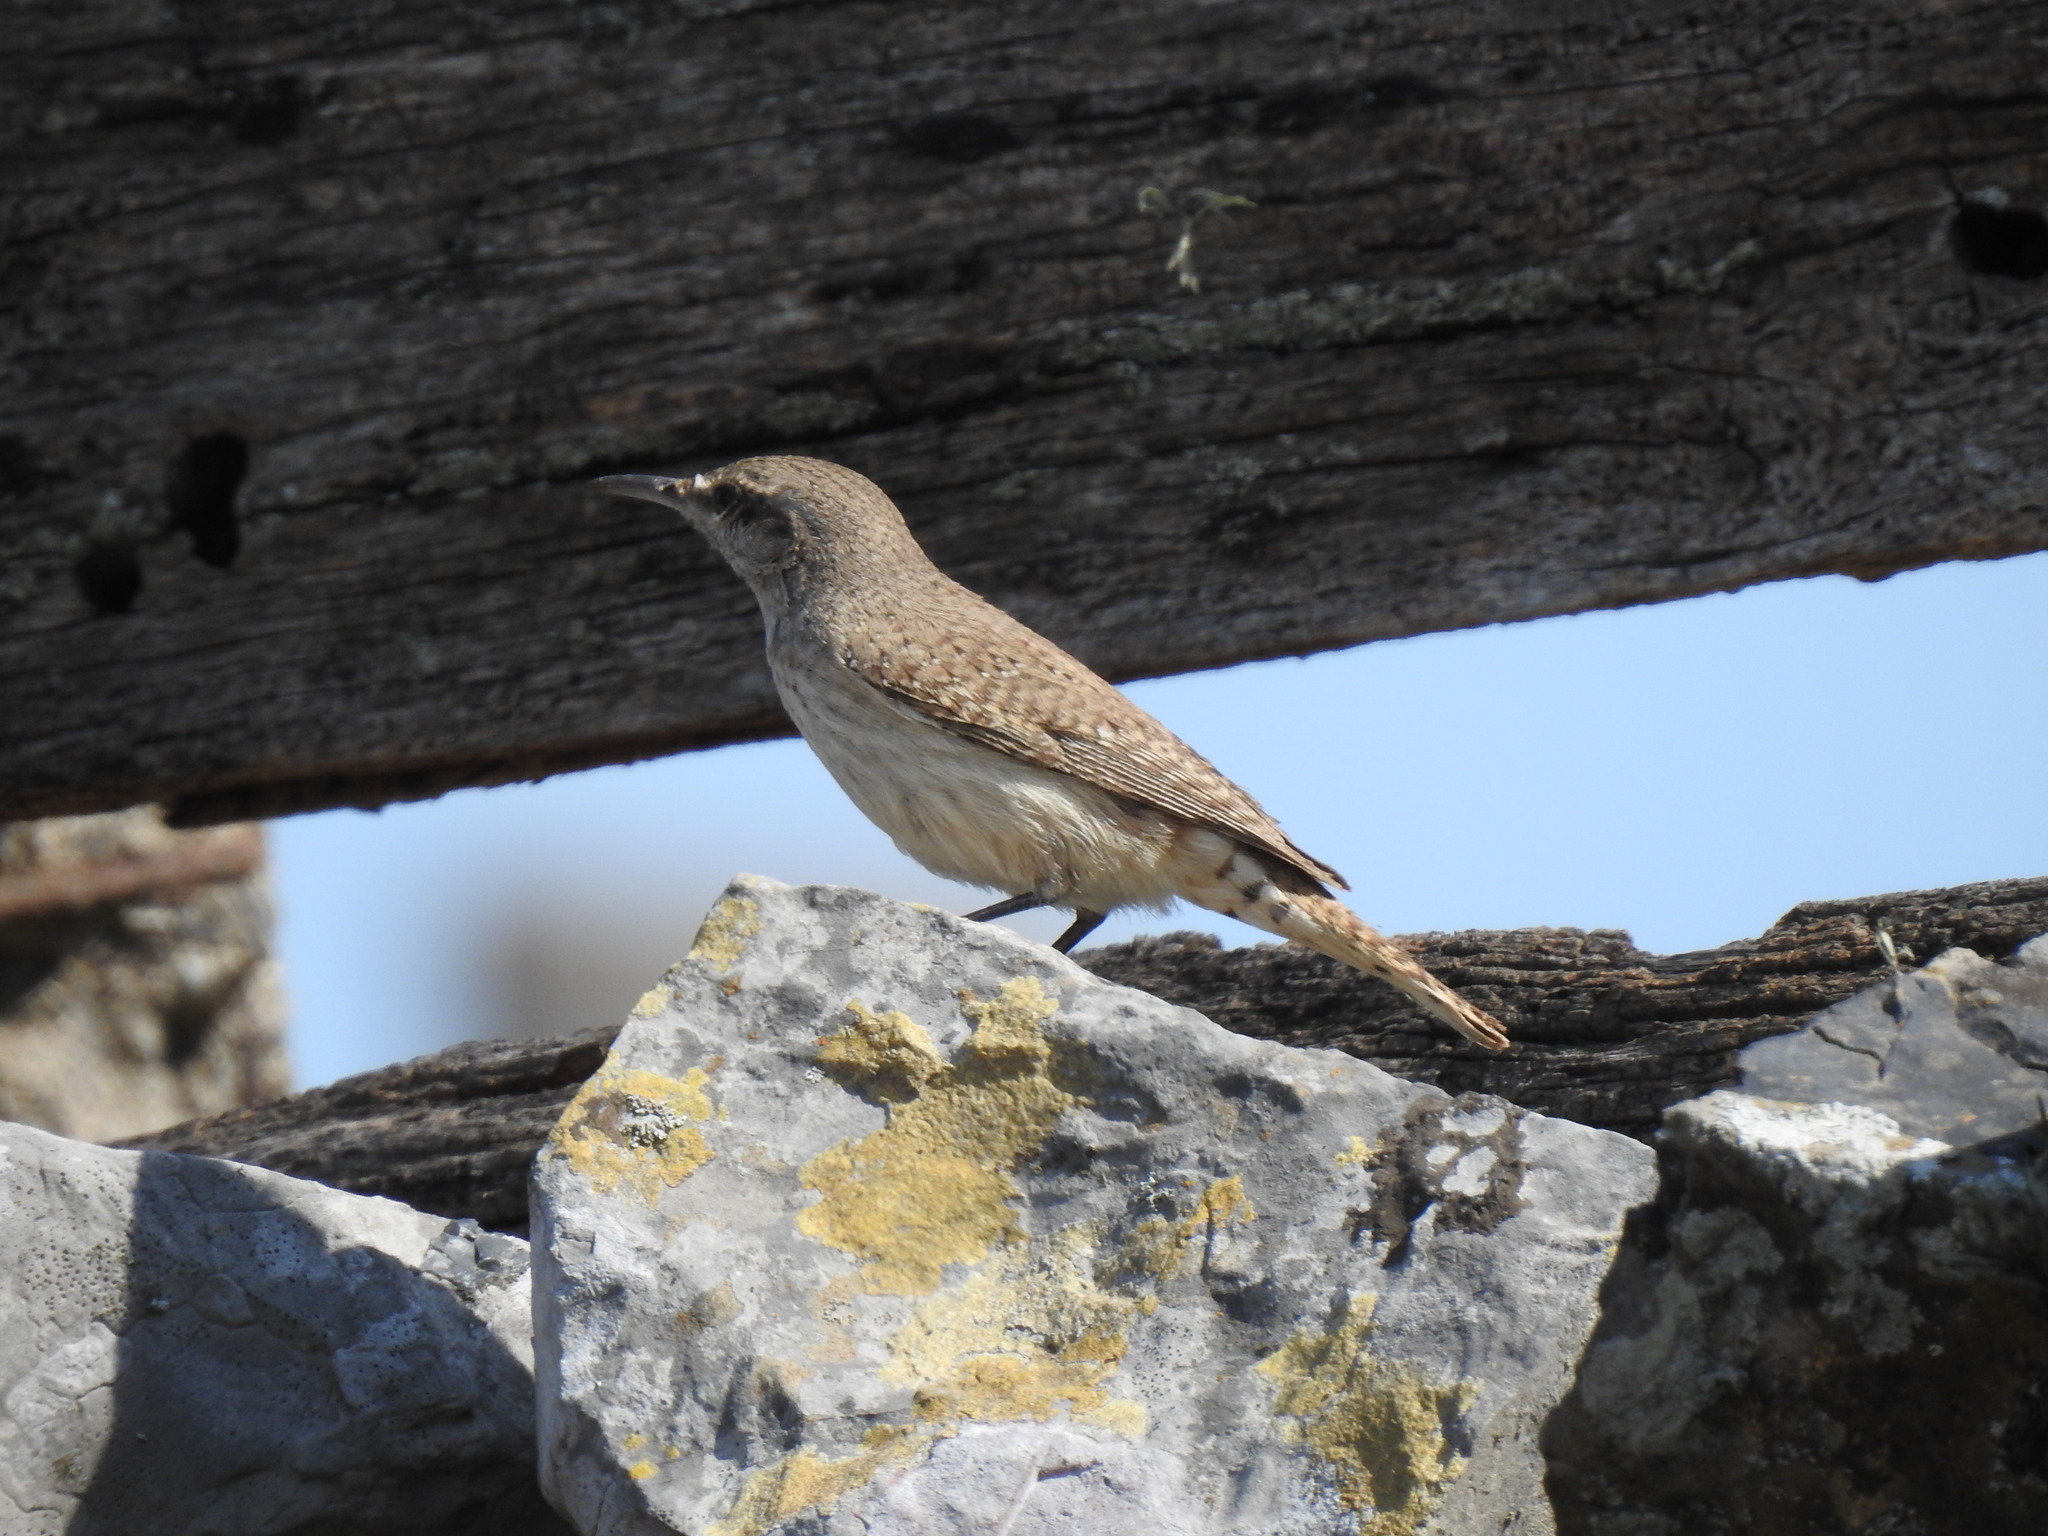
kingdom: Animalia
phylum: Chordata
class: Aves
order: Passeriformes
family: Troglodytidae
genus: Salpinctes
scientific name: Salpinctes obsoletus
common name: Rock wren
